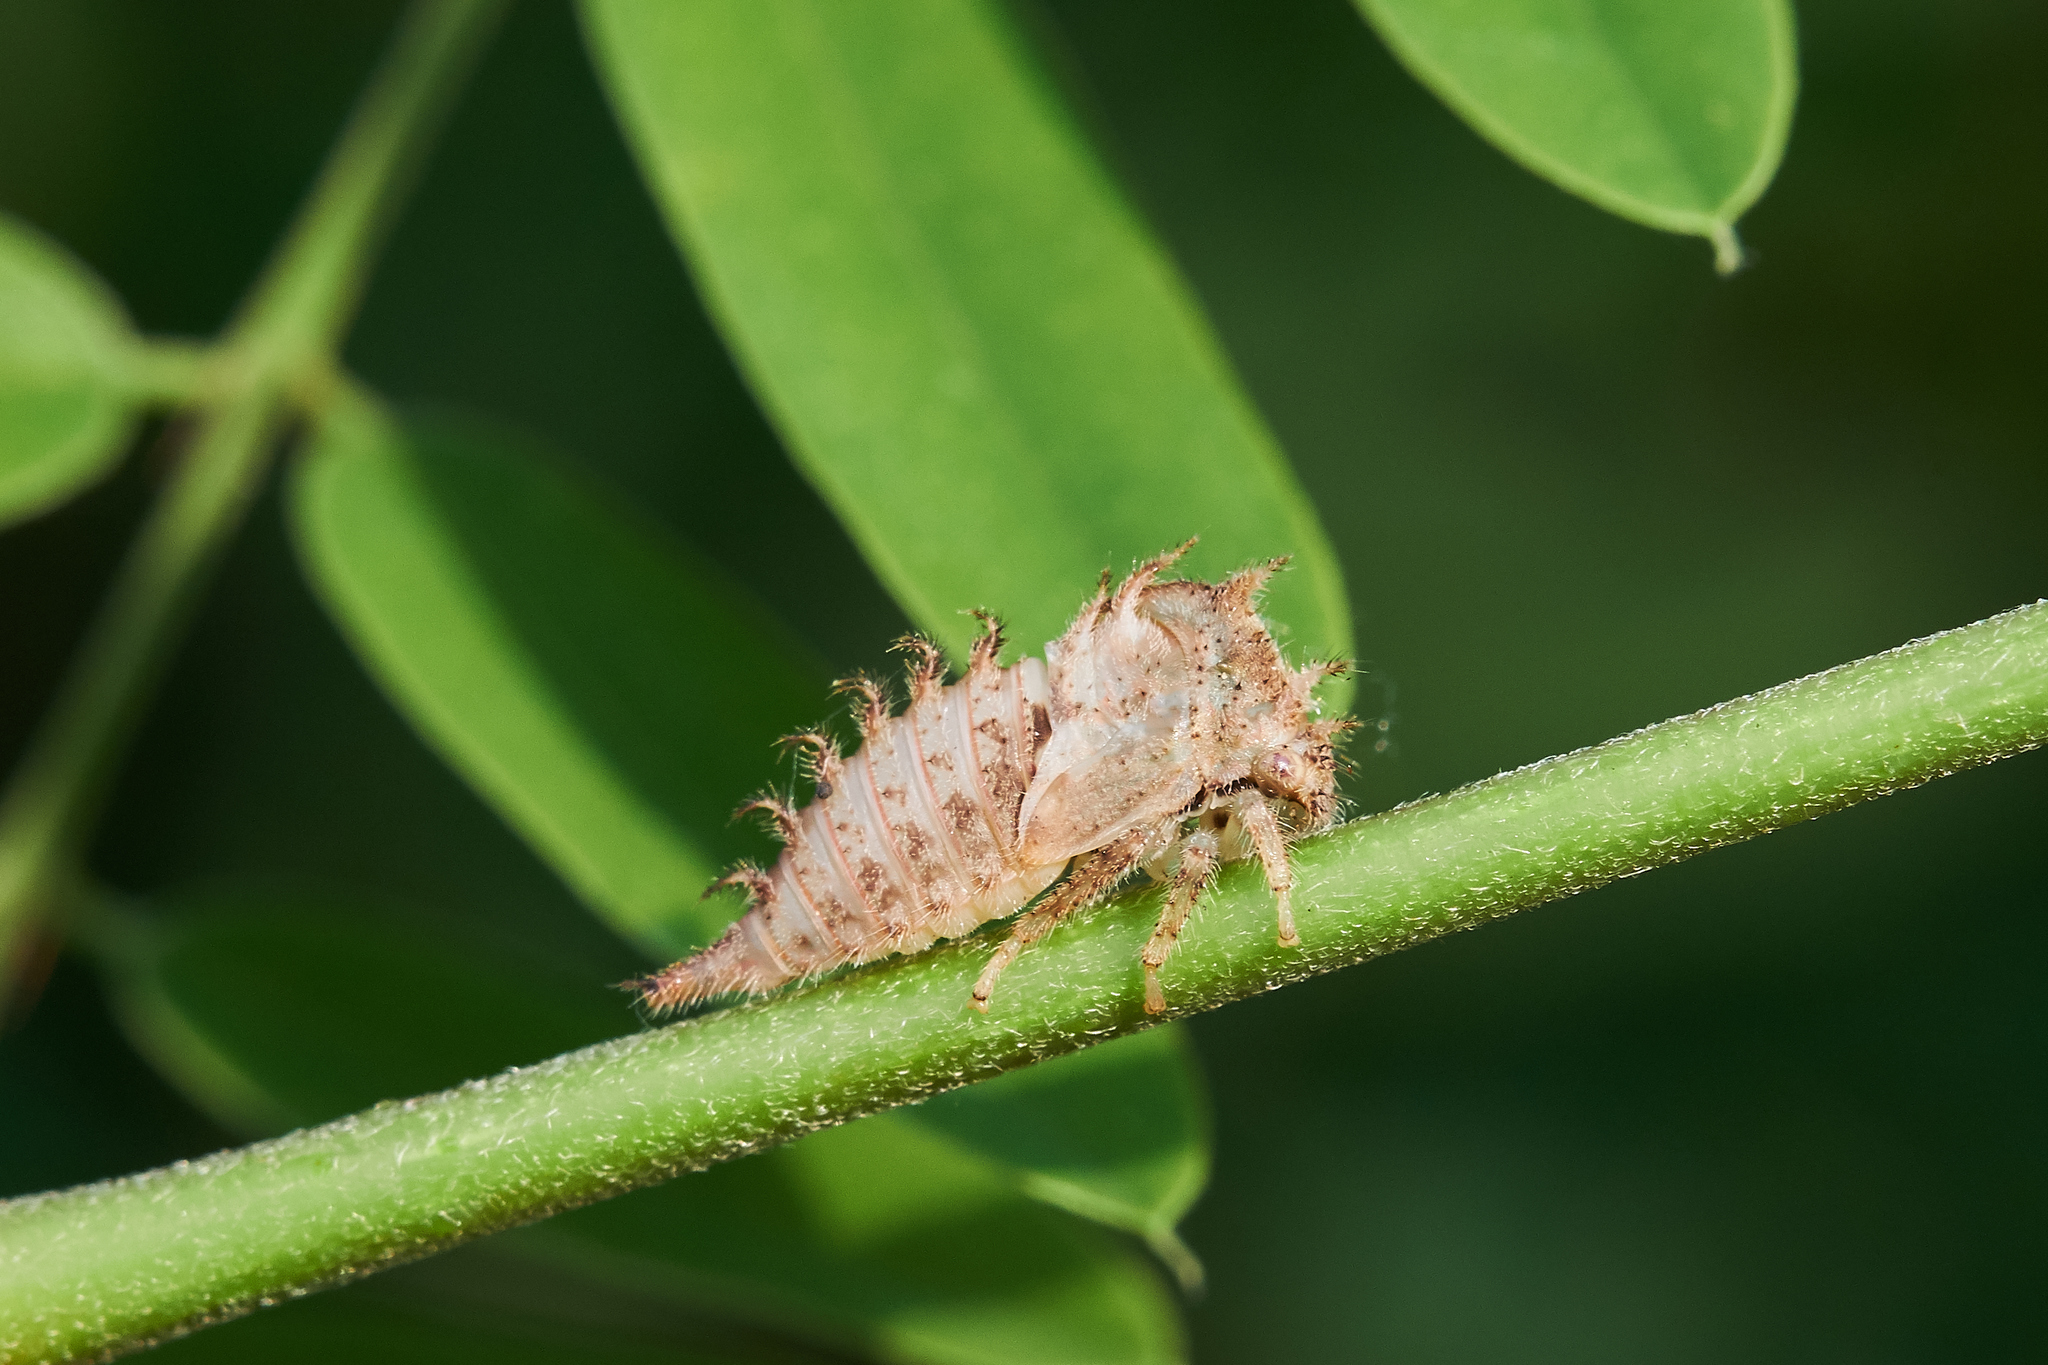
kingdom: Animalia
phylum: Arthropoda
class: Insecta
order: Hemiptera
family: Membracidae
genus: Stictocephala
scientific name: Stictocephala bisonia
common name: American buffalo treehopper
